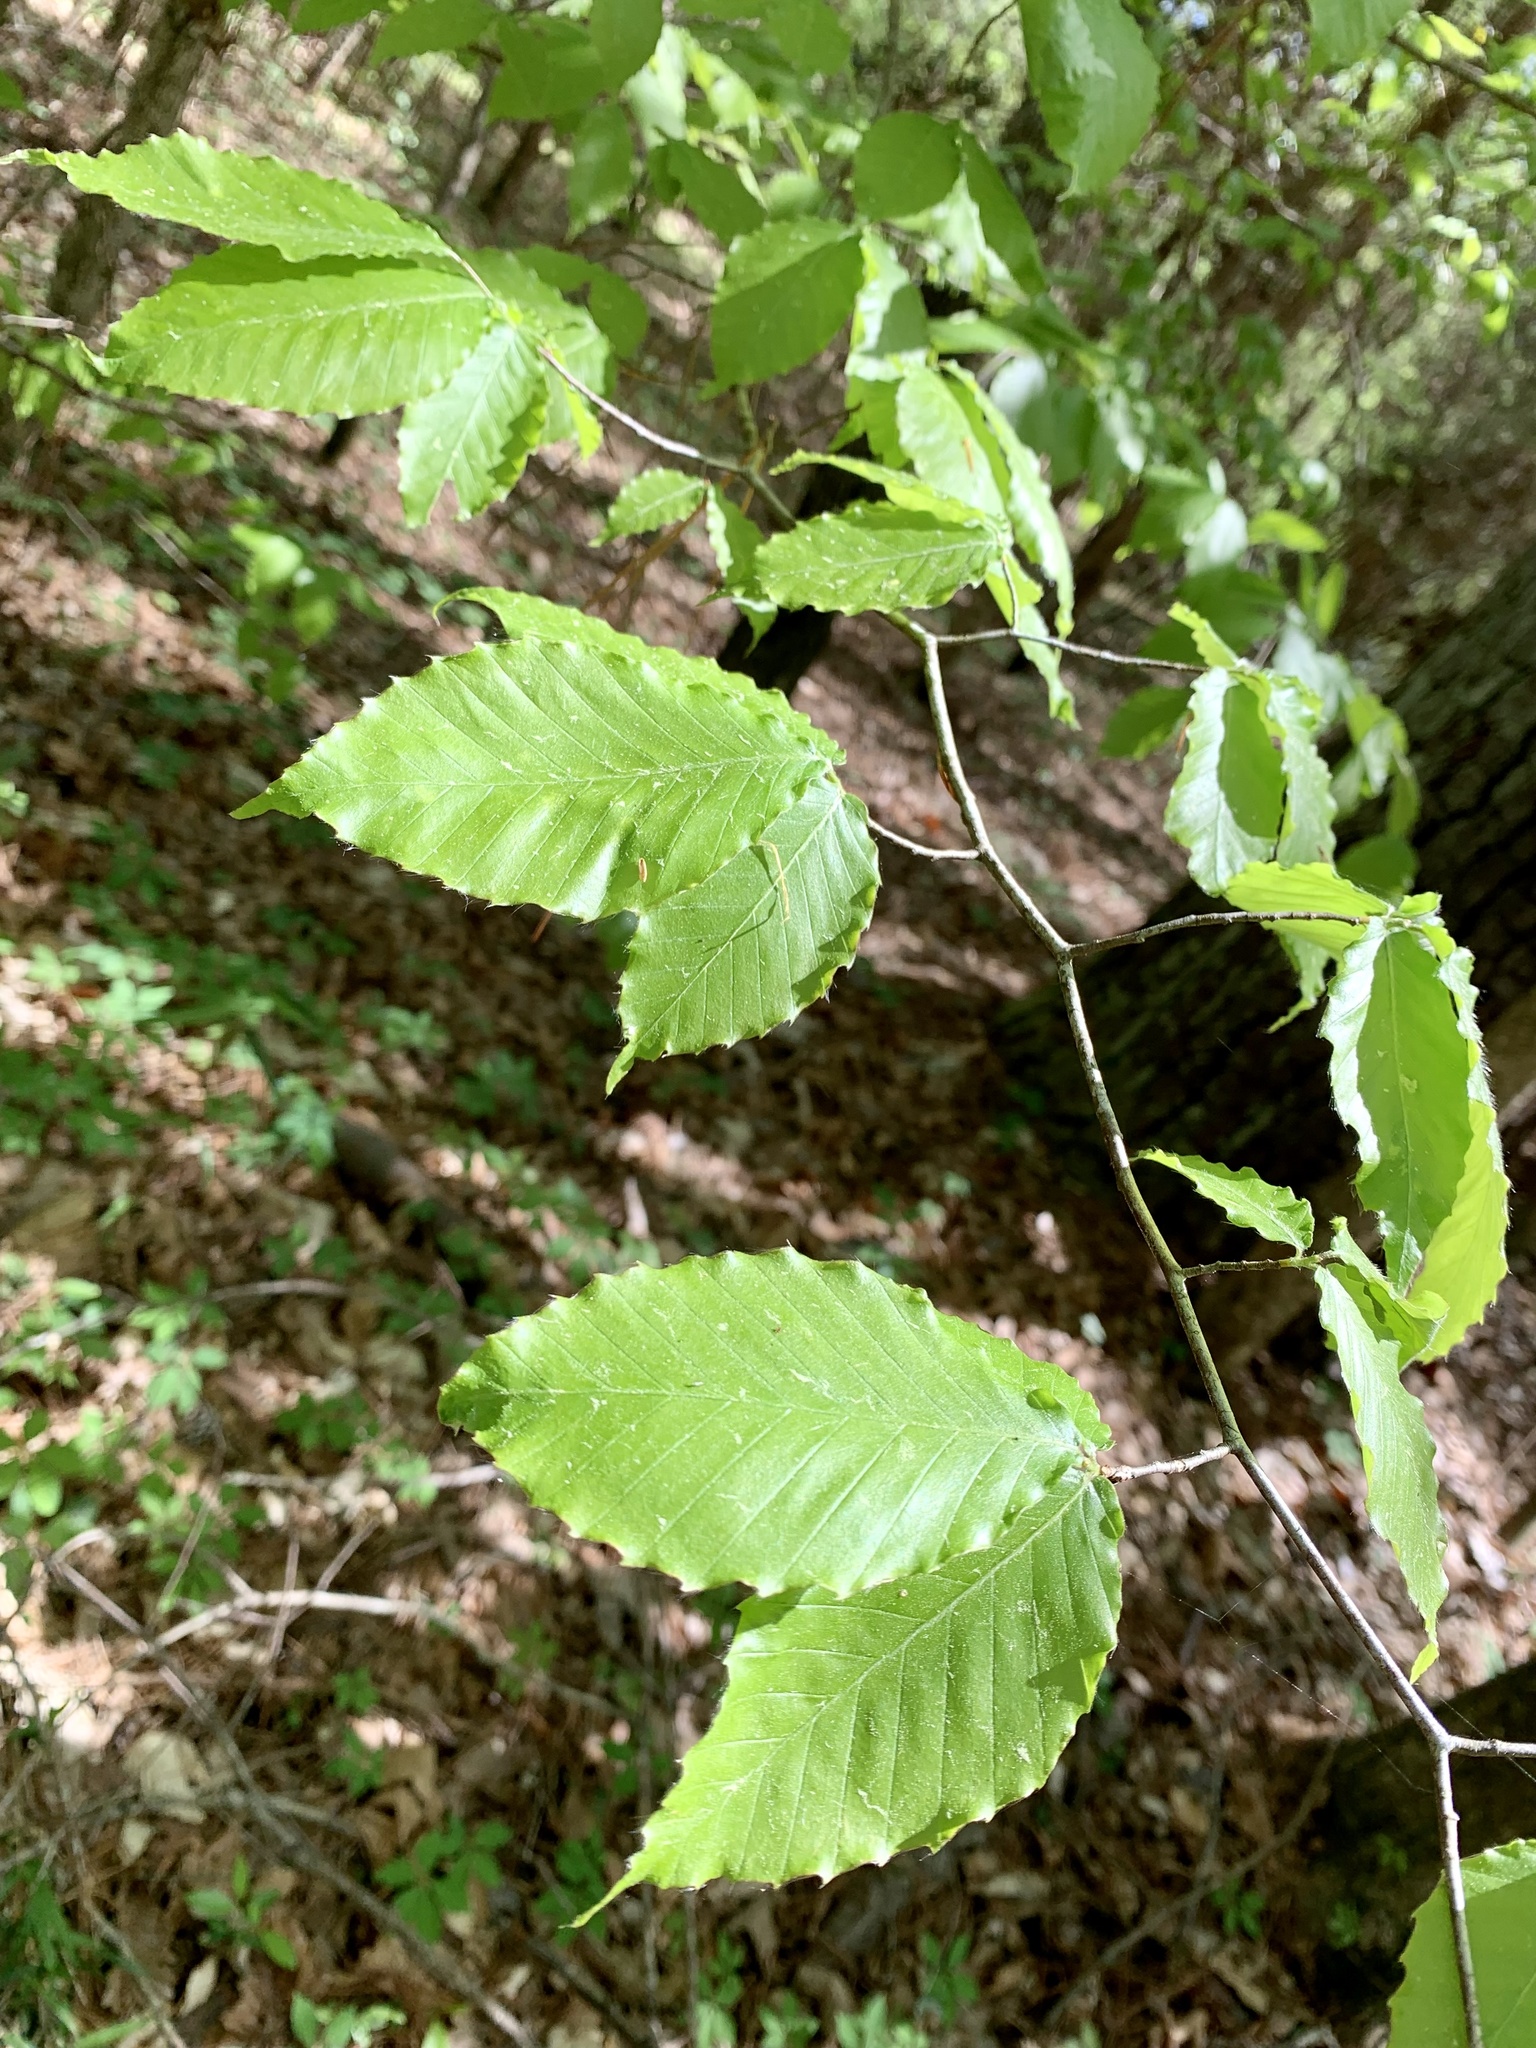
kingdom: Plantae
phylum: Tracheophyta
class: Magnoliopsida
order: Fagales
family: Fagaceae
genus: Fagus
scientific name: Fagus grandifolia
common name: American beech
